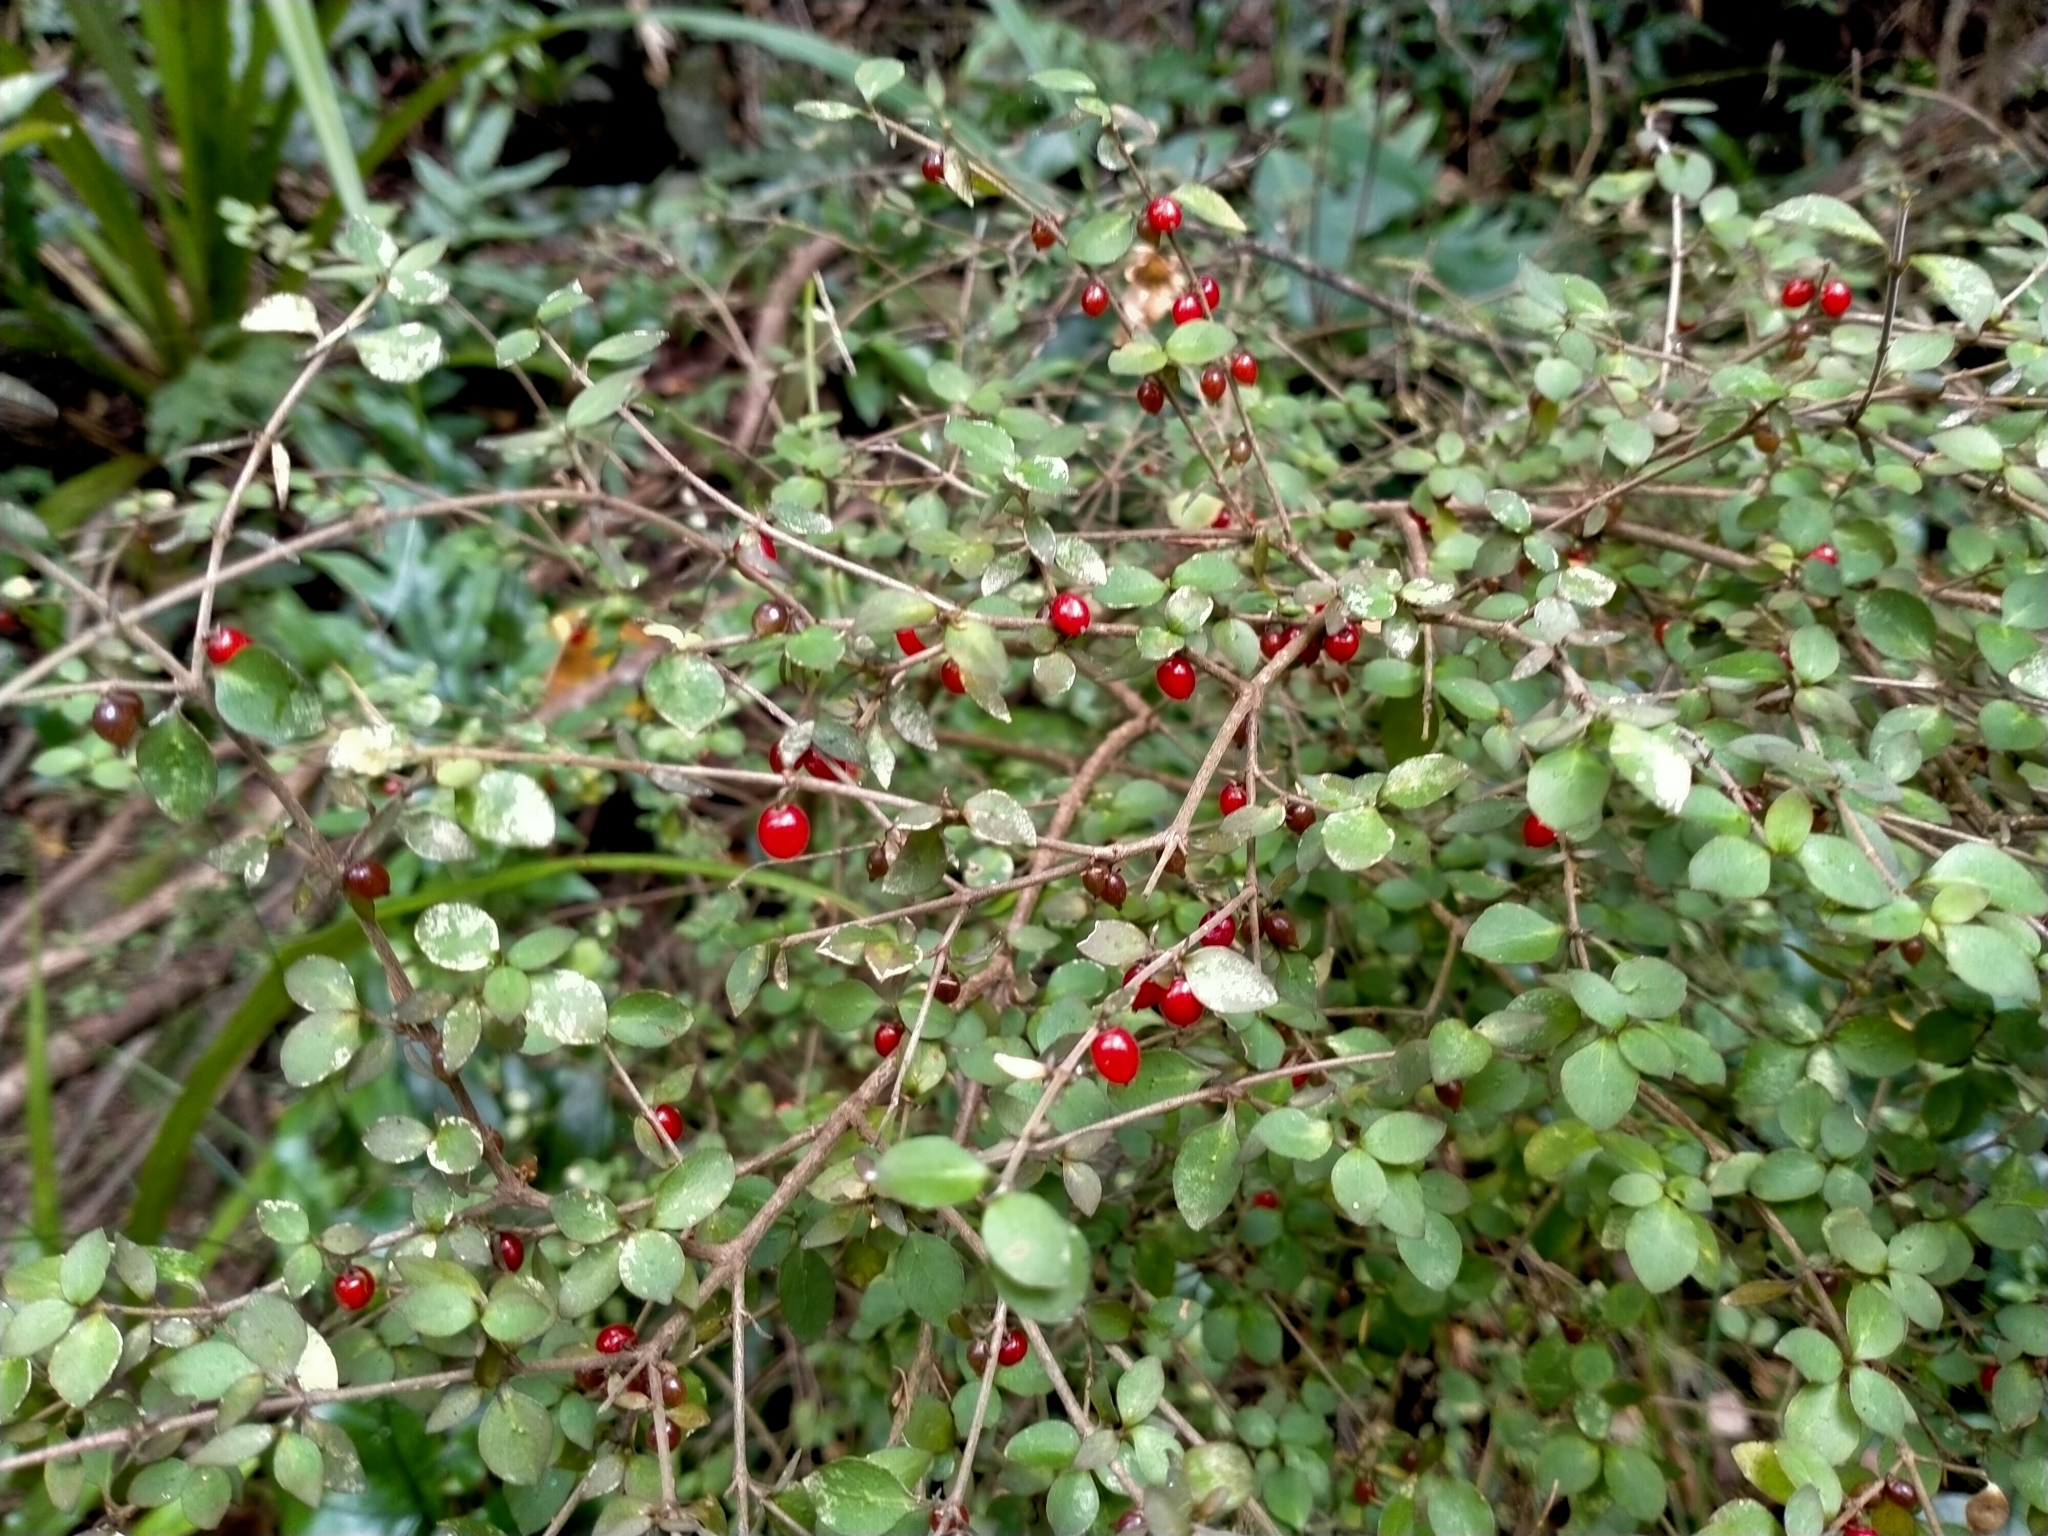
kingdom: Plantae
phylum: Tracheophyta
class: Magnoliopsida
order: Gentianales
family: Rubiaceae
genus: Coprosma
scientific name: Coprosma rhamnoides
